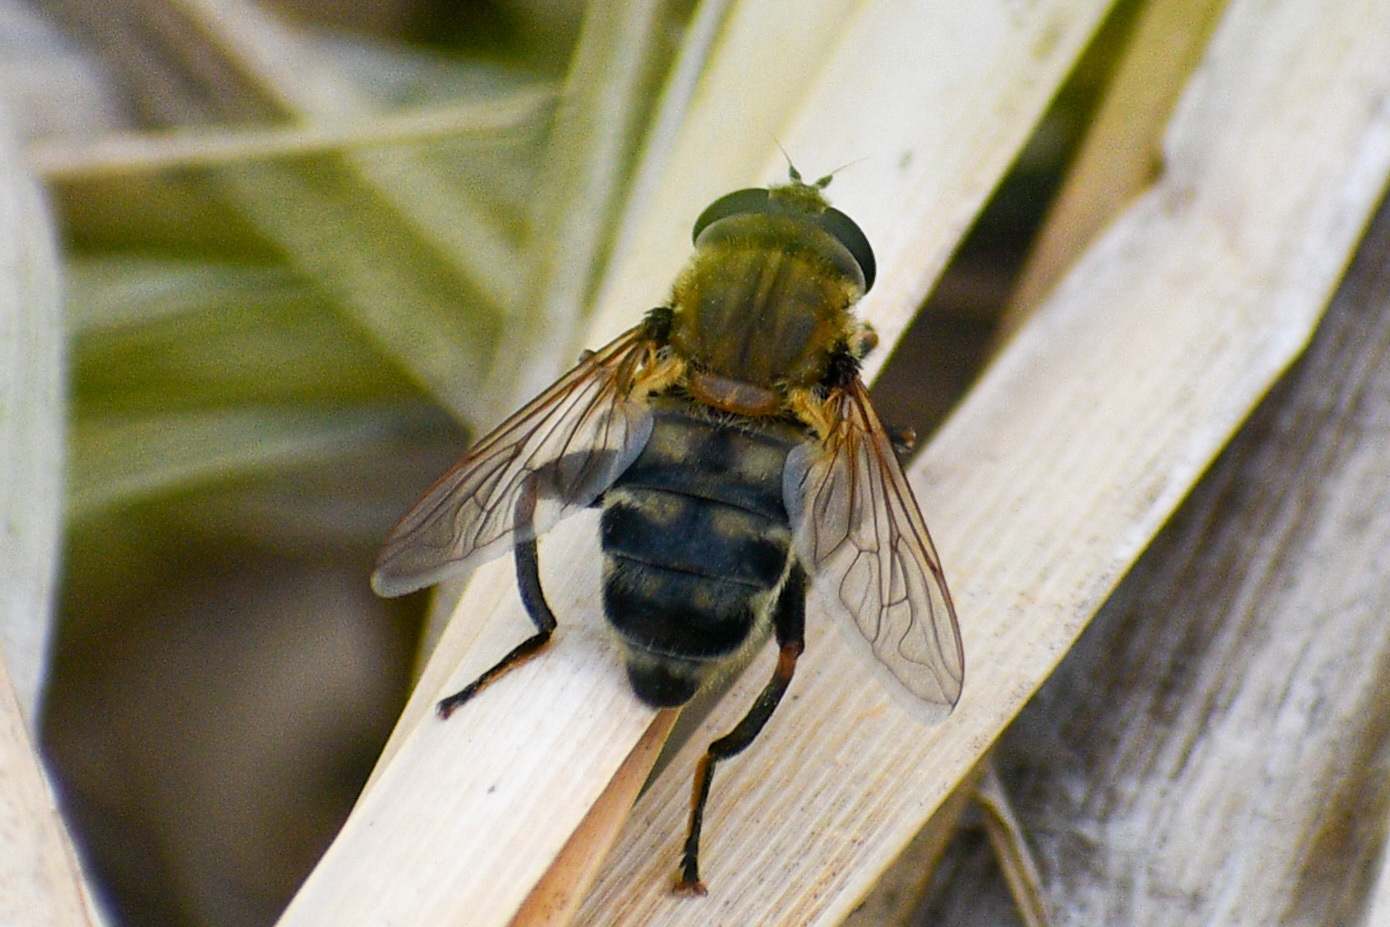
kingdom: Animalia
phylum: Arthropoda
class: Insecta
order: Diptera
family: Syrphidae
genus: Polydontomyia
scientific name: Polydontomyia curvipes
